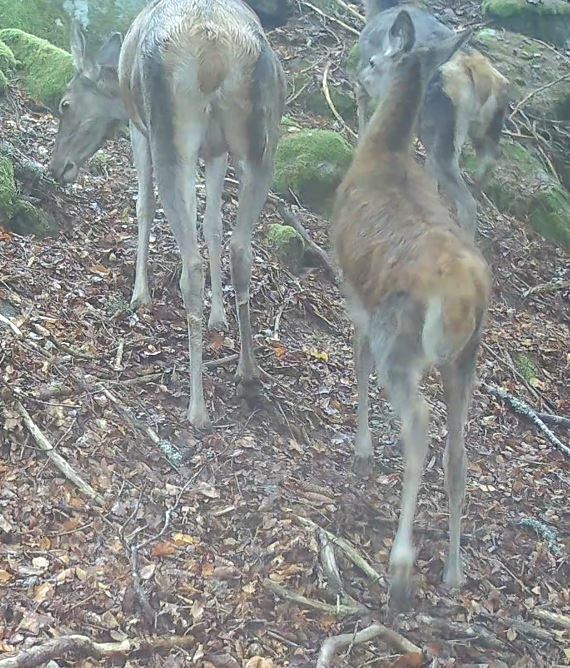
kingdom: Animalia
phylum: Chordata
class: Mammalia
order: Artiodactyla
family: Cervidae
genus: Cervus
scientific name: Cervus elaphus
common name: Red deer
